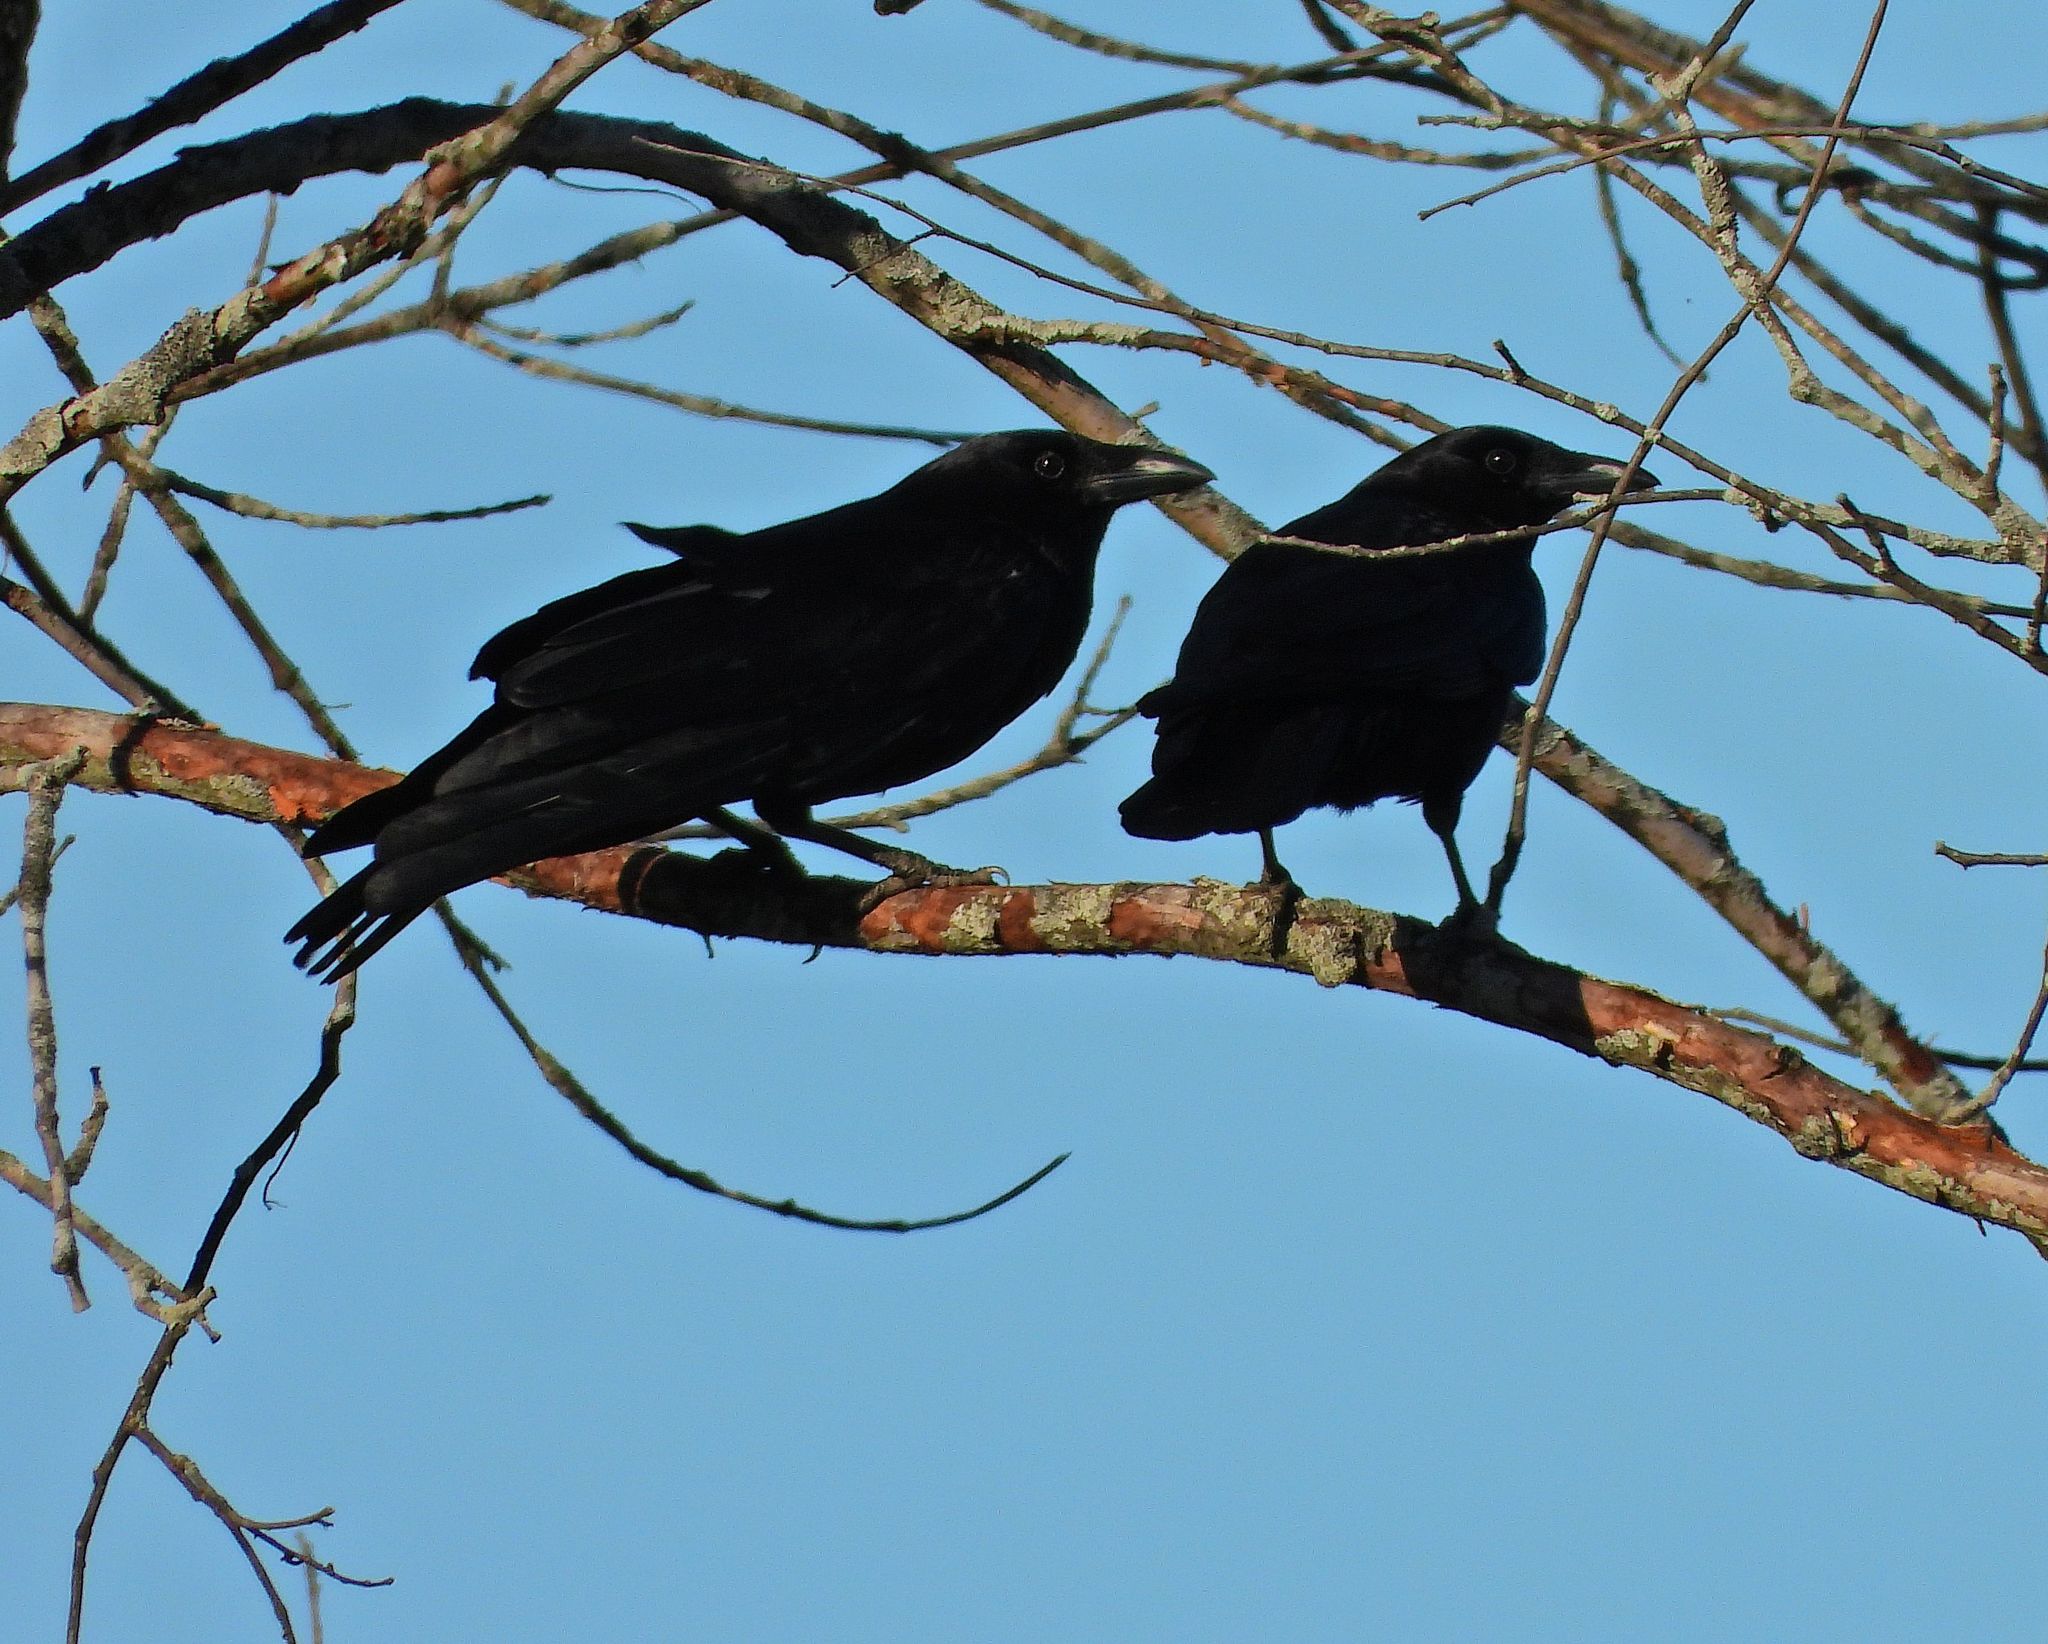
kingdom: Animalia
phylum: Chordata
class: Aves
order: Passeriformes
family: Corvidae
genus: Corvus
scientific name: Corvus brachyrhynchos
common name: American crow
